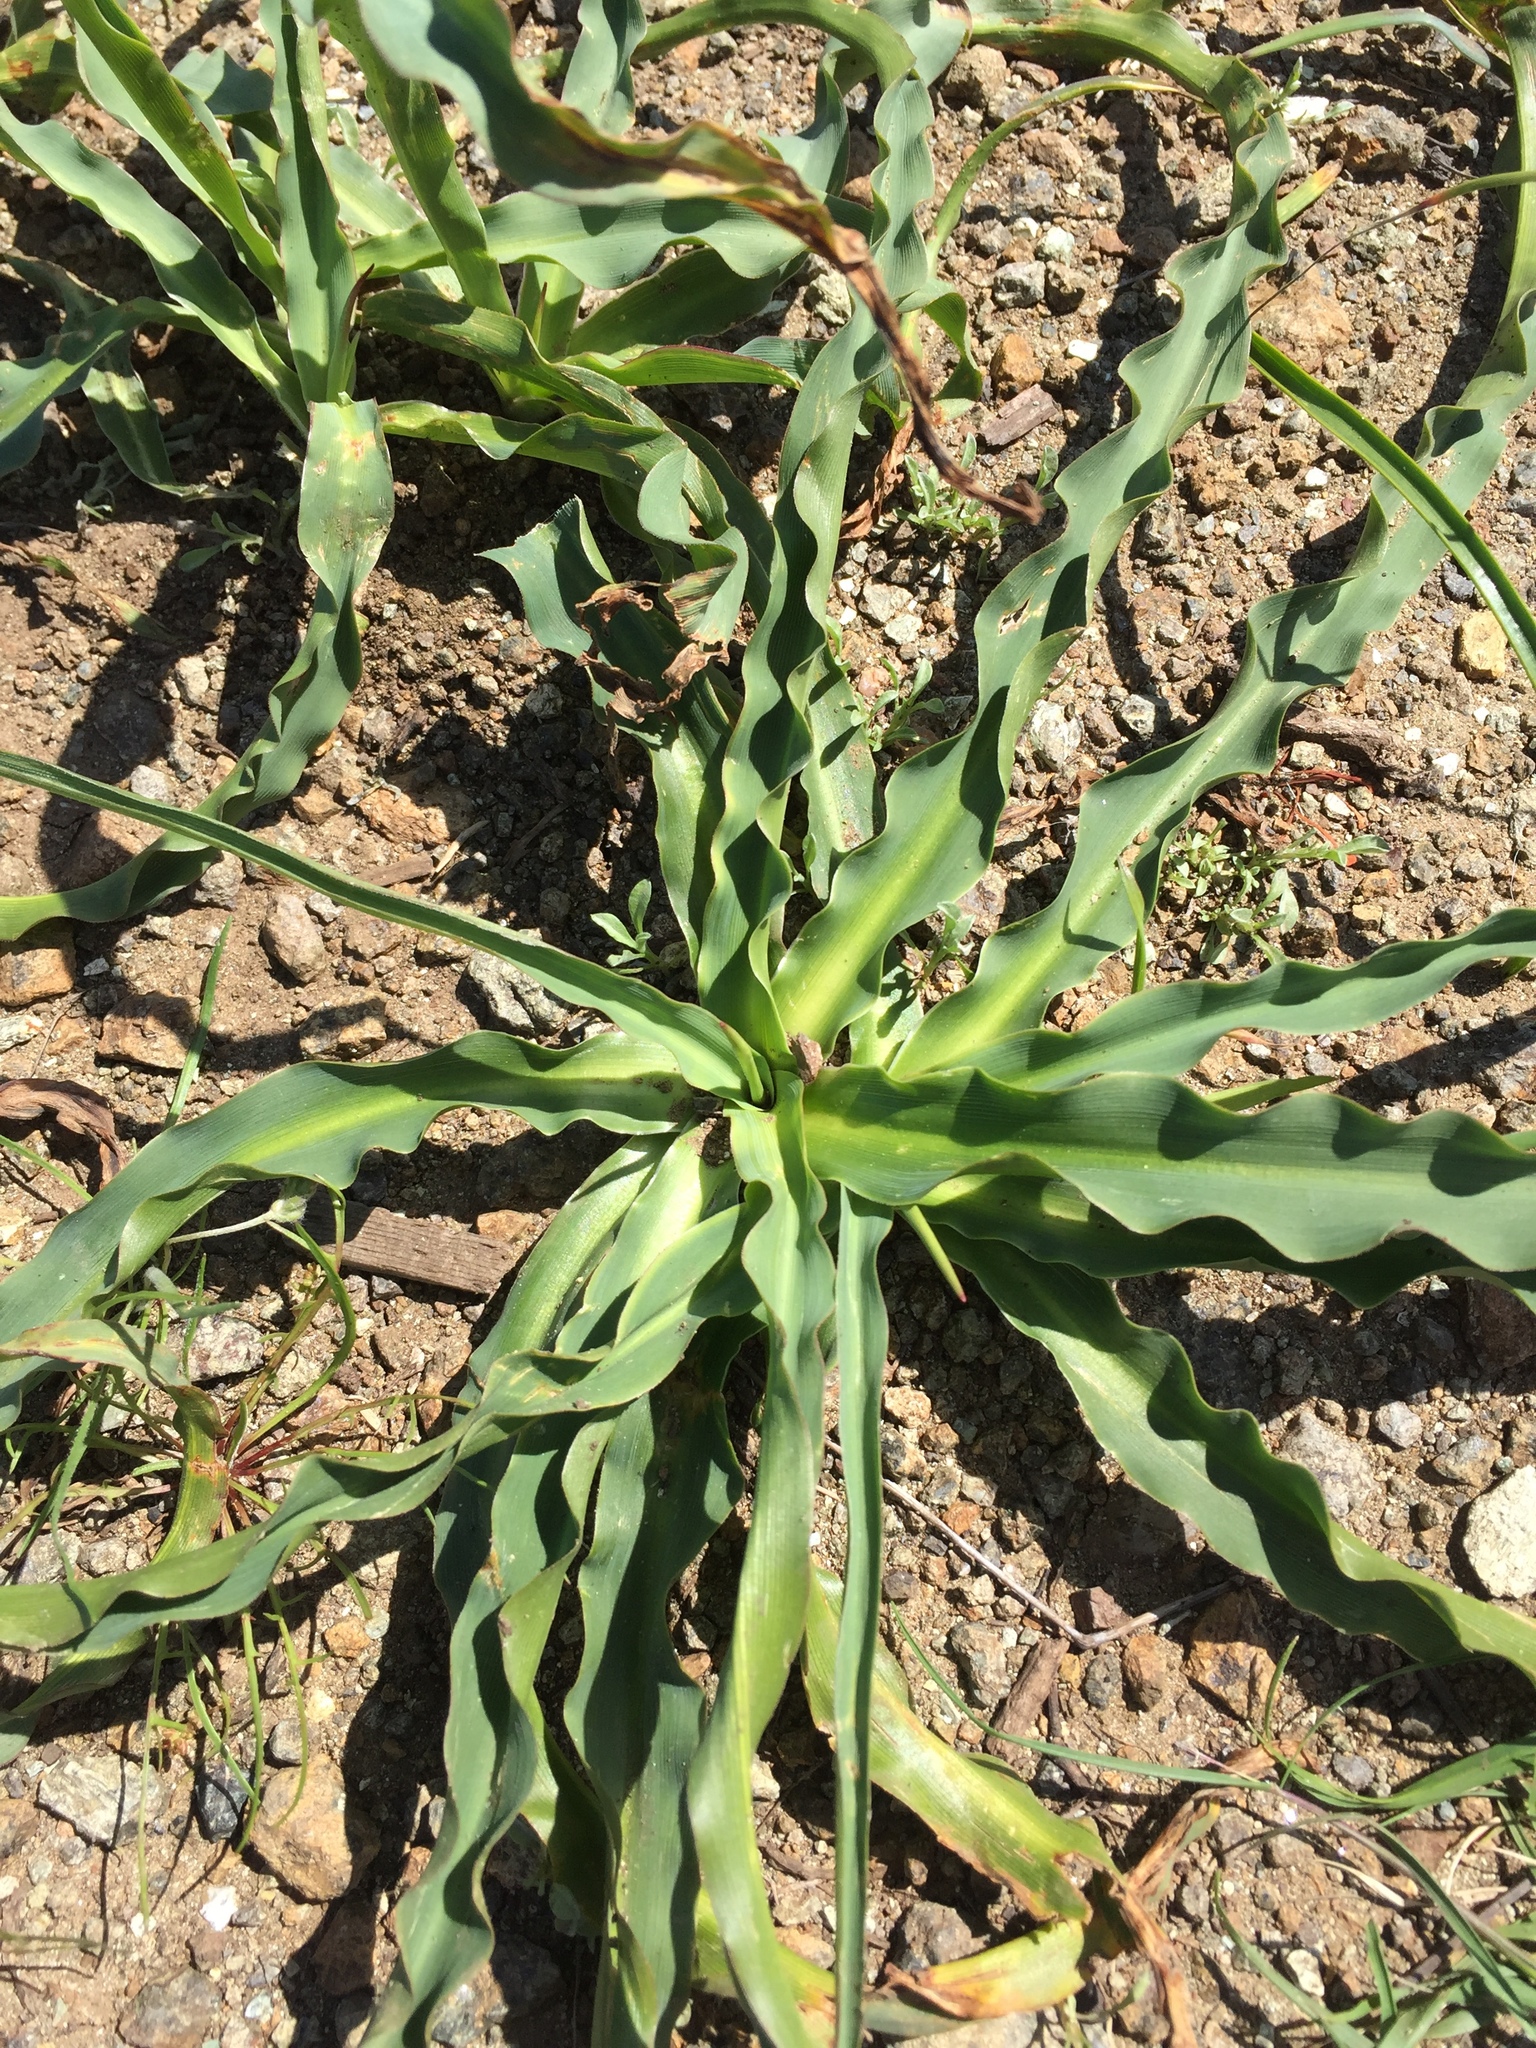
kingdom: Plantae
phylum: Tracheophyta
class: Liliopsida
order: Asparagales
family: Asparagaceae
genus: Chlorogalum
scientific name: Chlorogalum pomeridianum
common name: Amole
